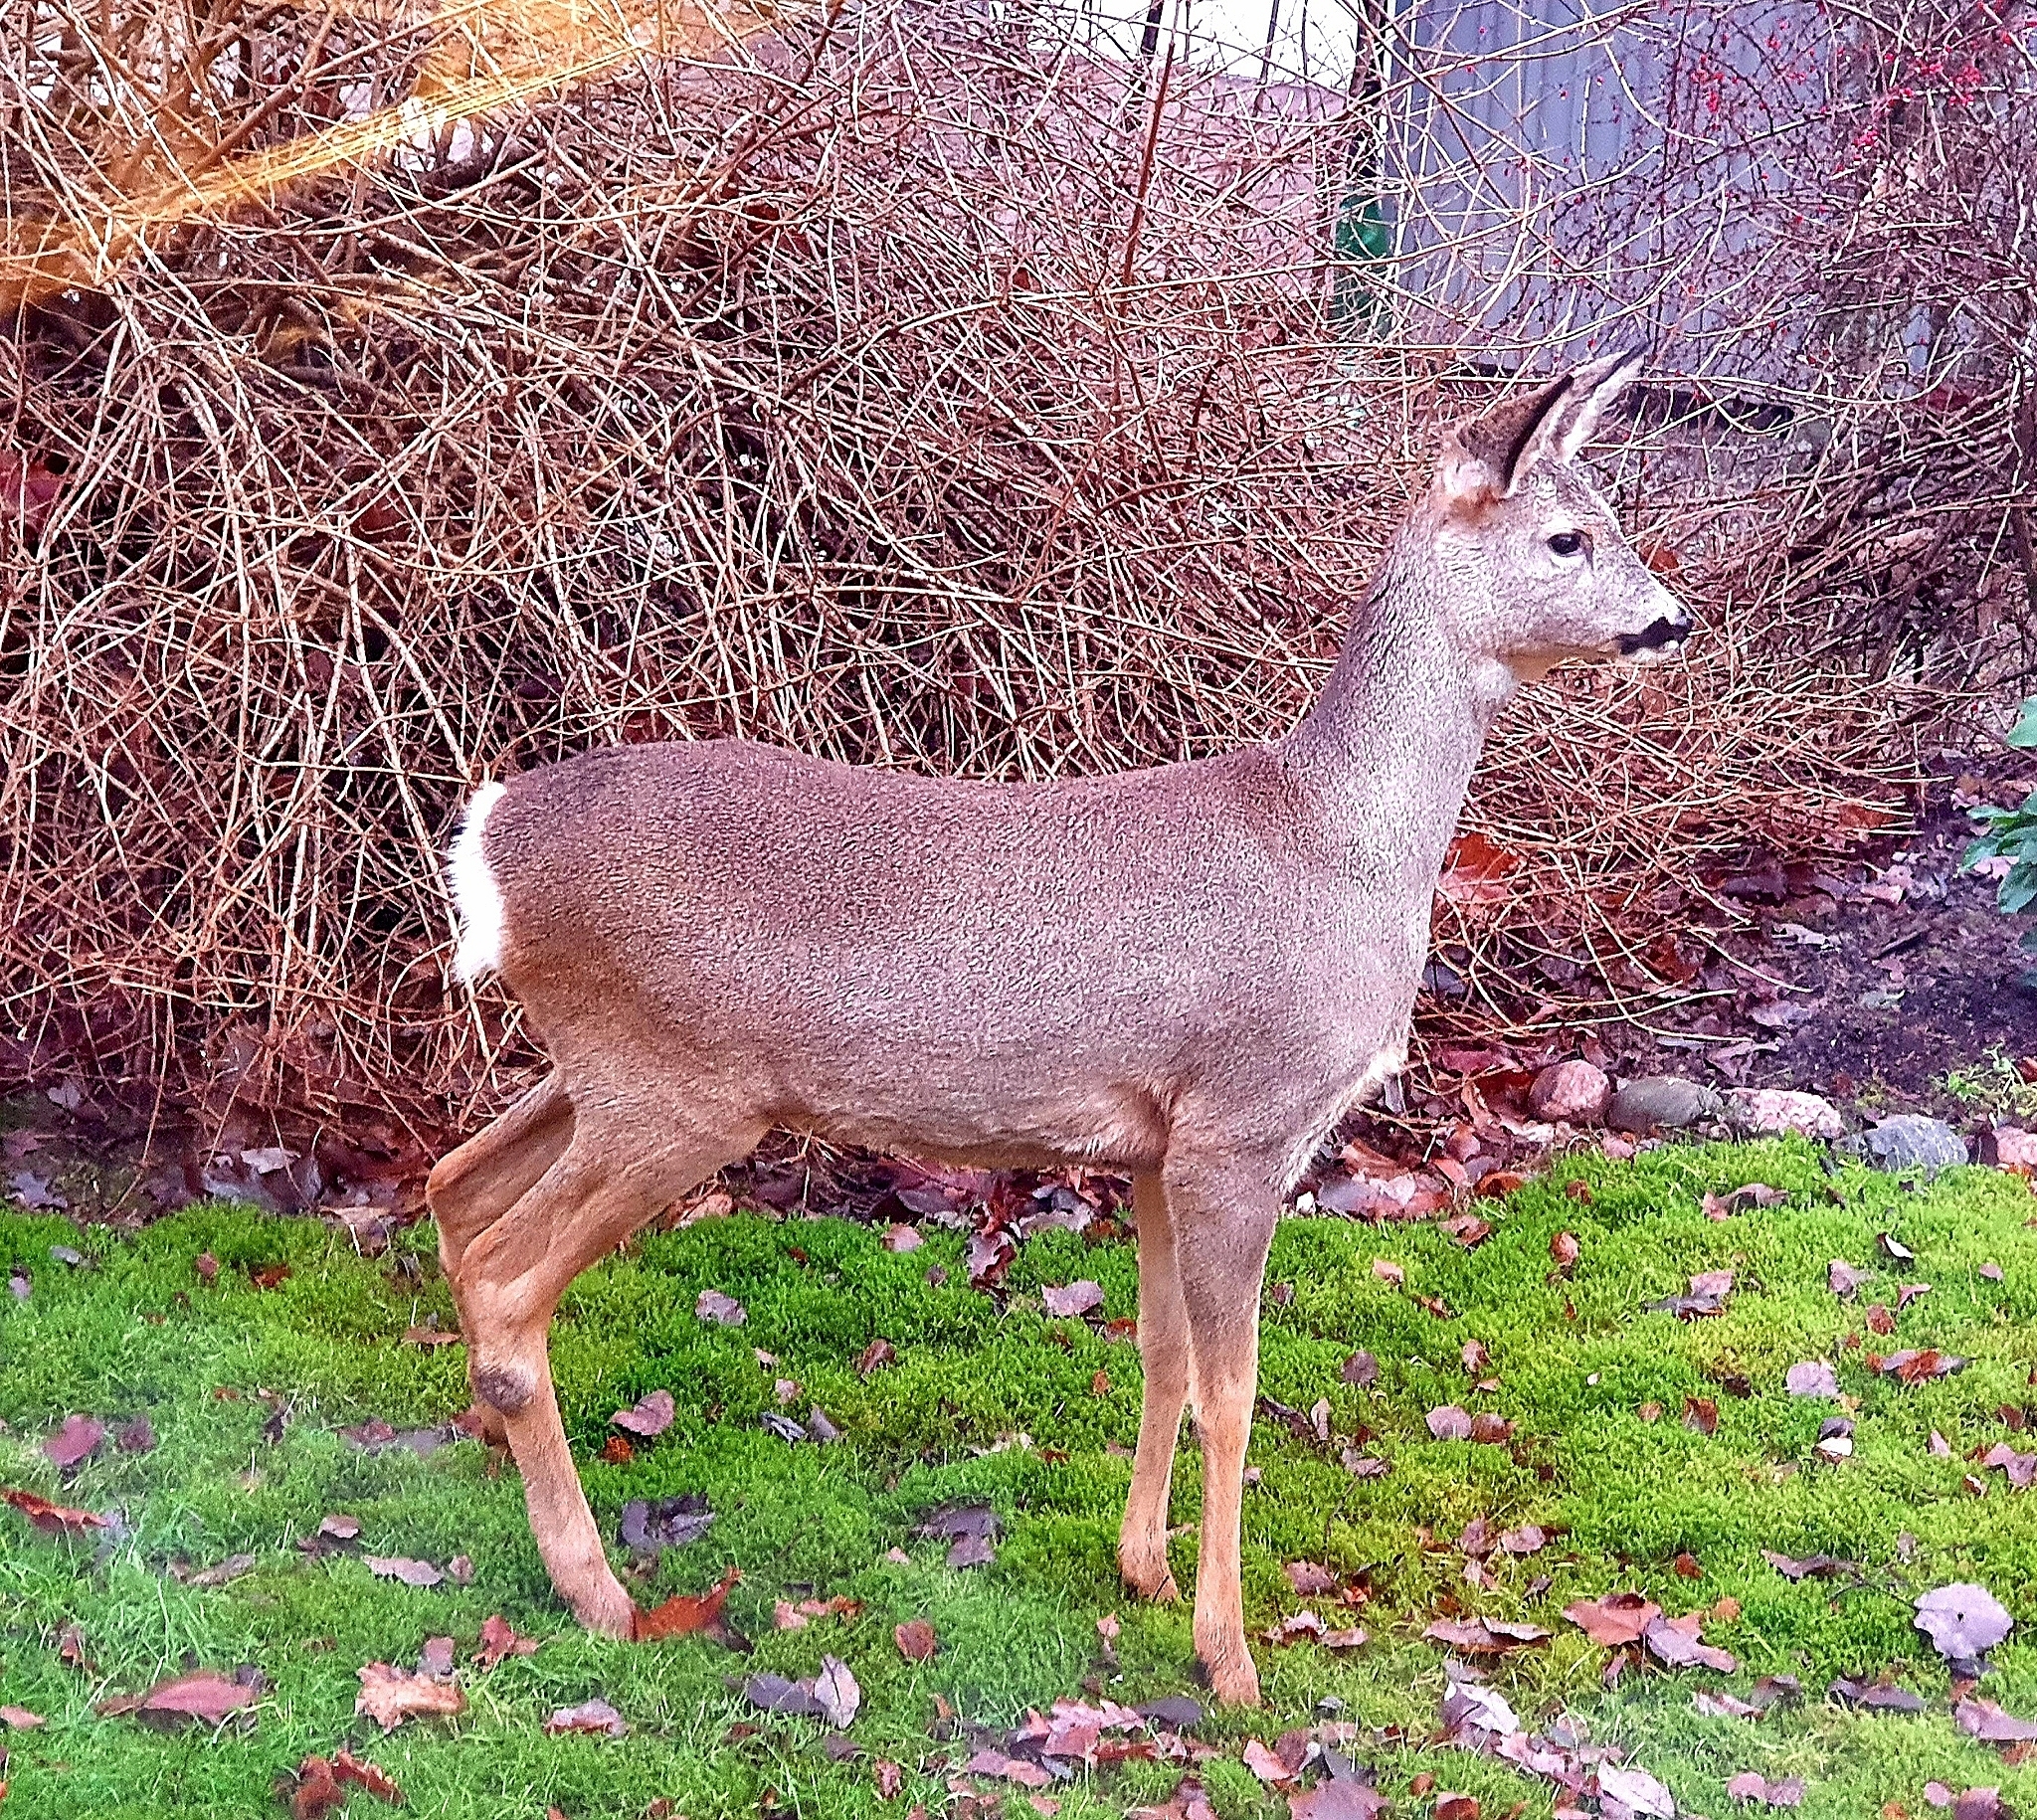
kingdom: Animalia
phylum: Chordata
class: Mammalia
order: Artiodactyla
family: Cervidae
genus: Capreolus
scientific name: Capreolus capreolus
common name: Western roe deer
